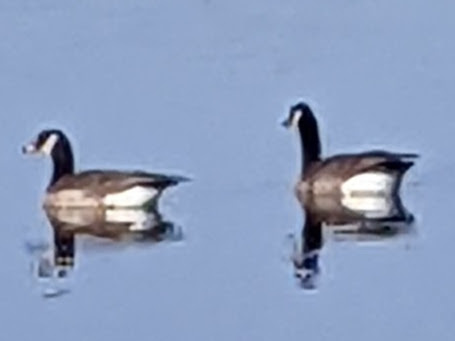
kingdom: Animalia
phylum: Chordata
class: Aves
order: Anseriformes
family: Anatidae
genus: Branta
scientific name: Branta canadensis
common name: Canada goose
